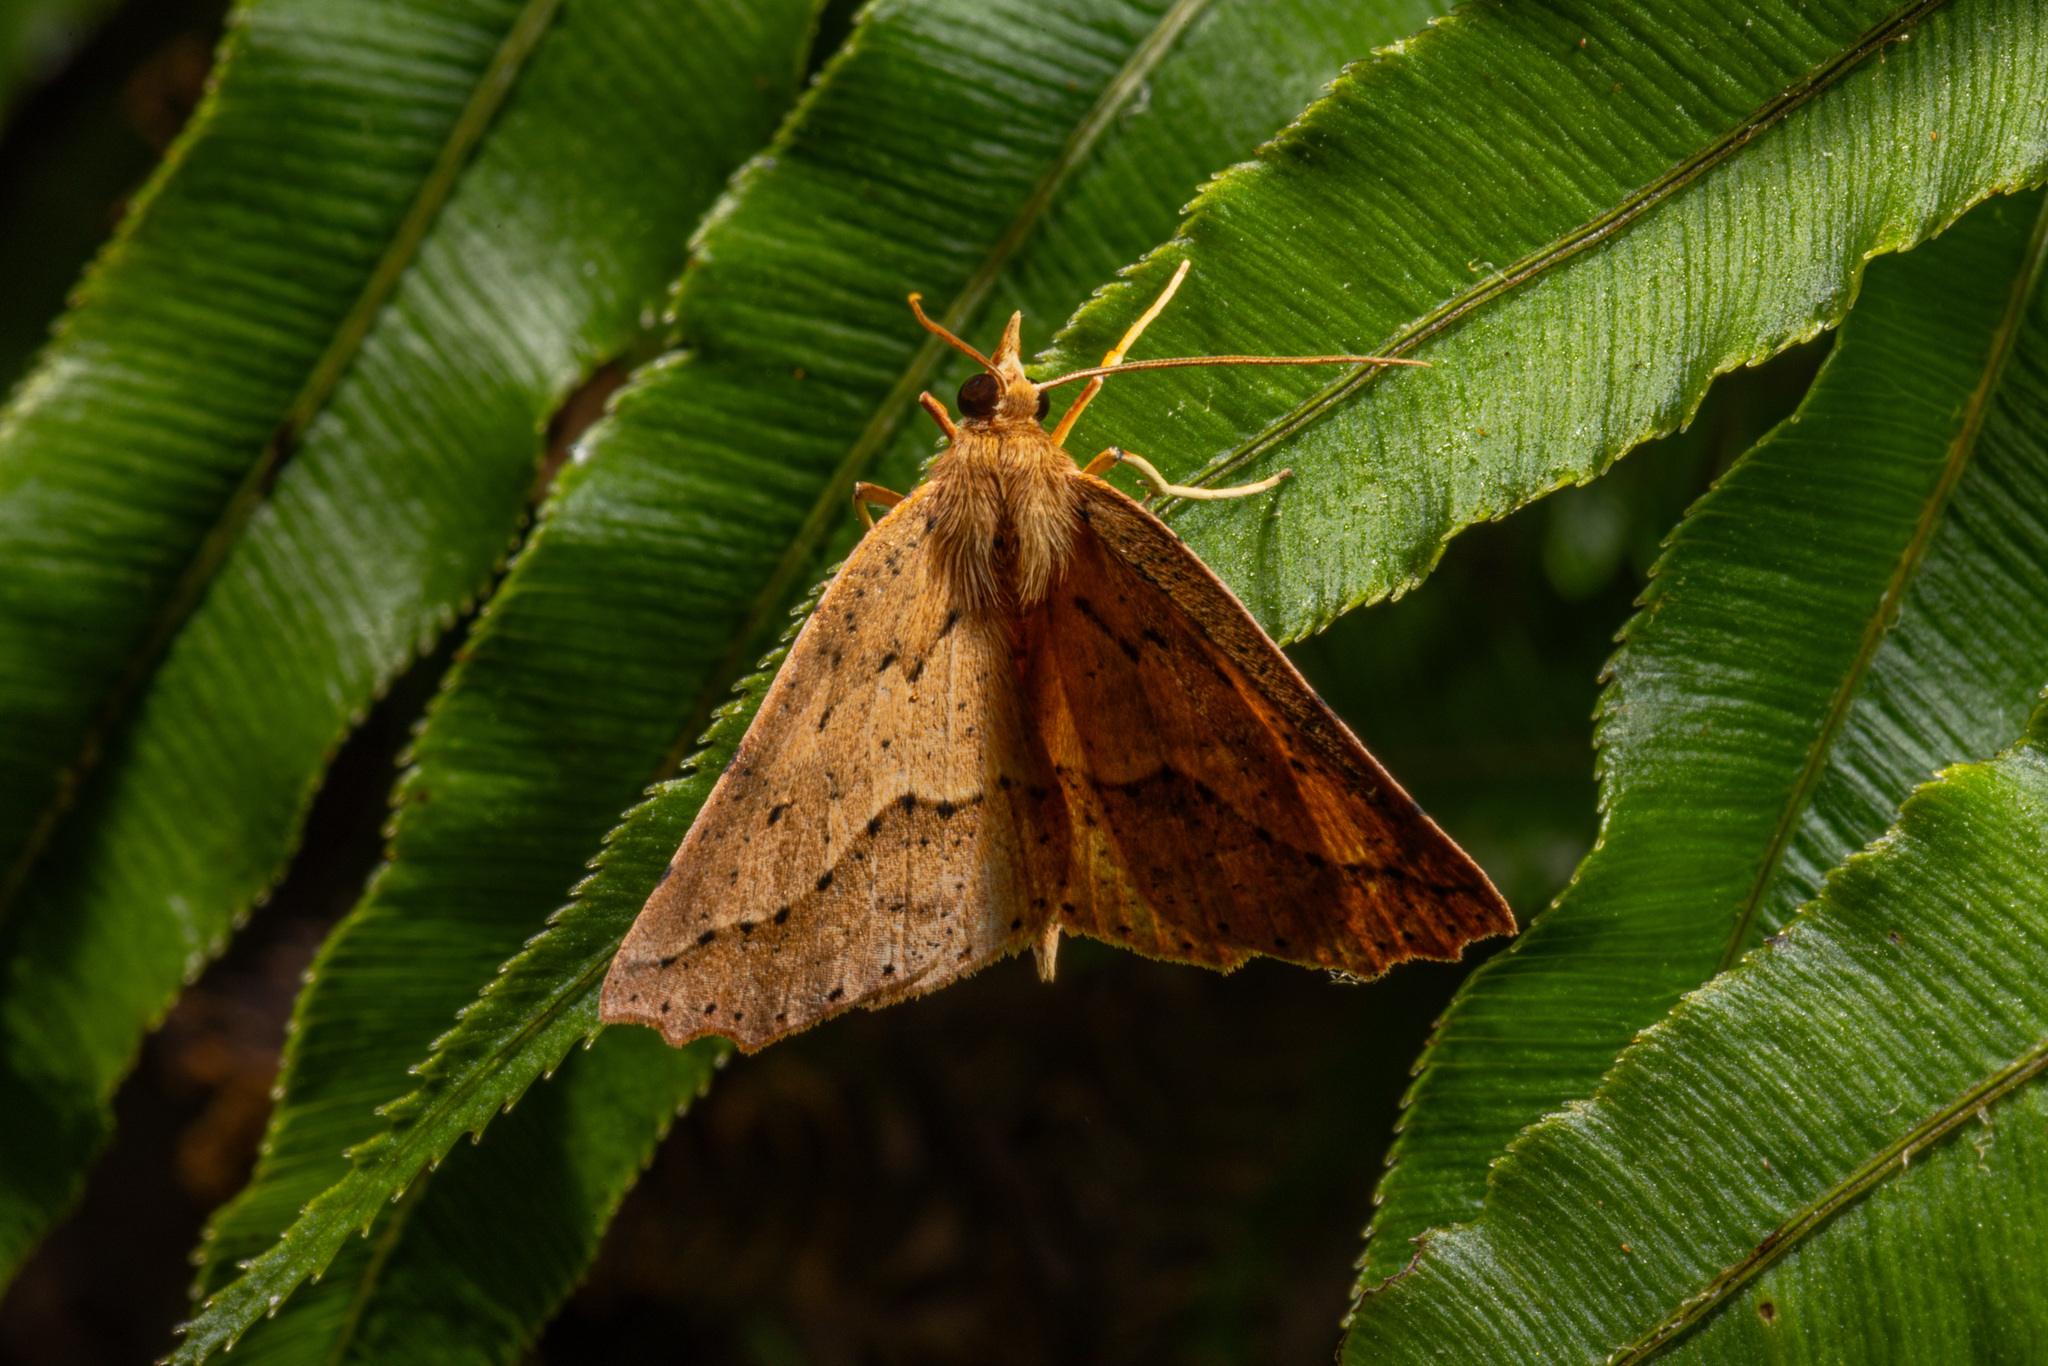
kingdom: Animalia
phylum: Arthropoda
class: Insecta
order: Lepidoptera
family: Geometridae
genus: Ischalis
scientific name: Ischalis variabilis
